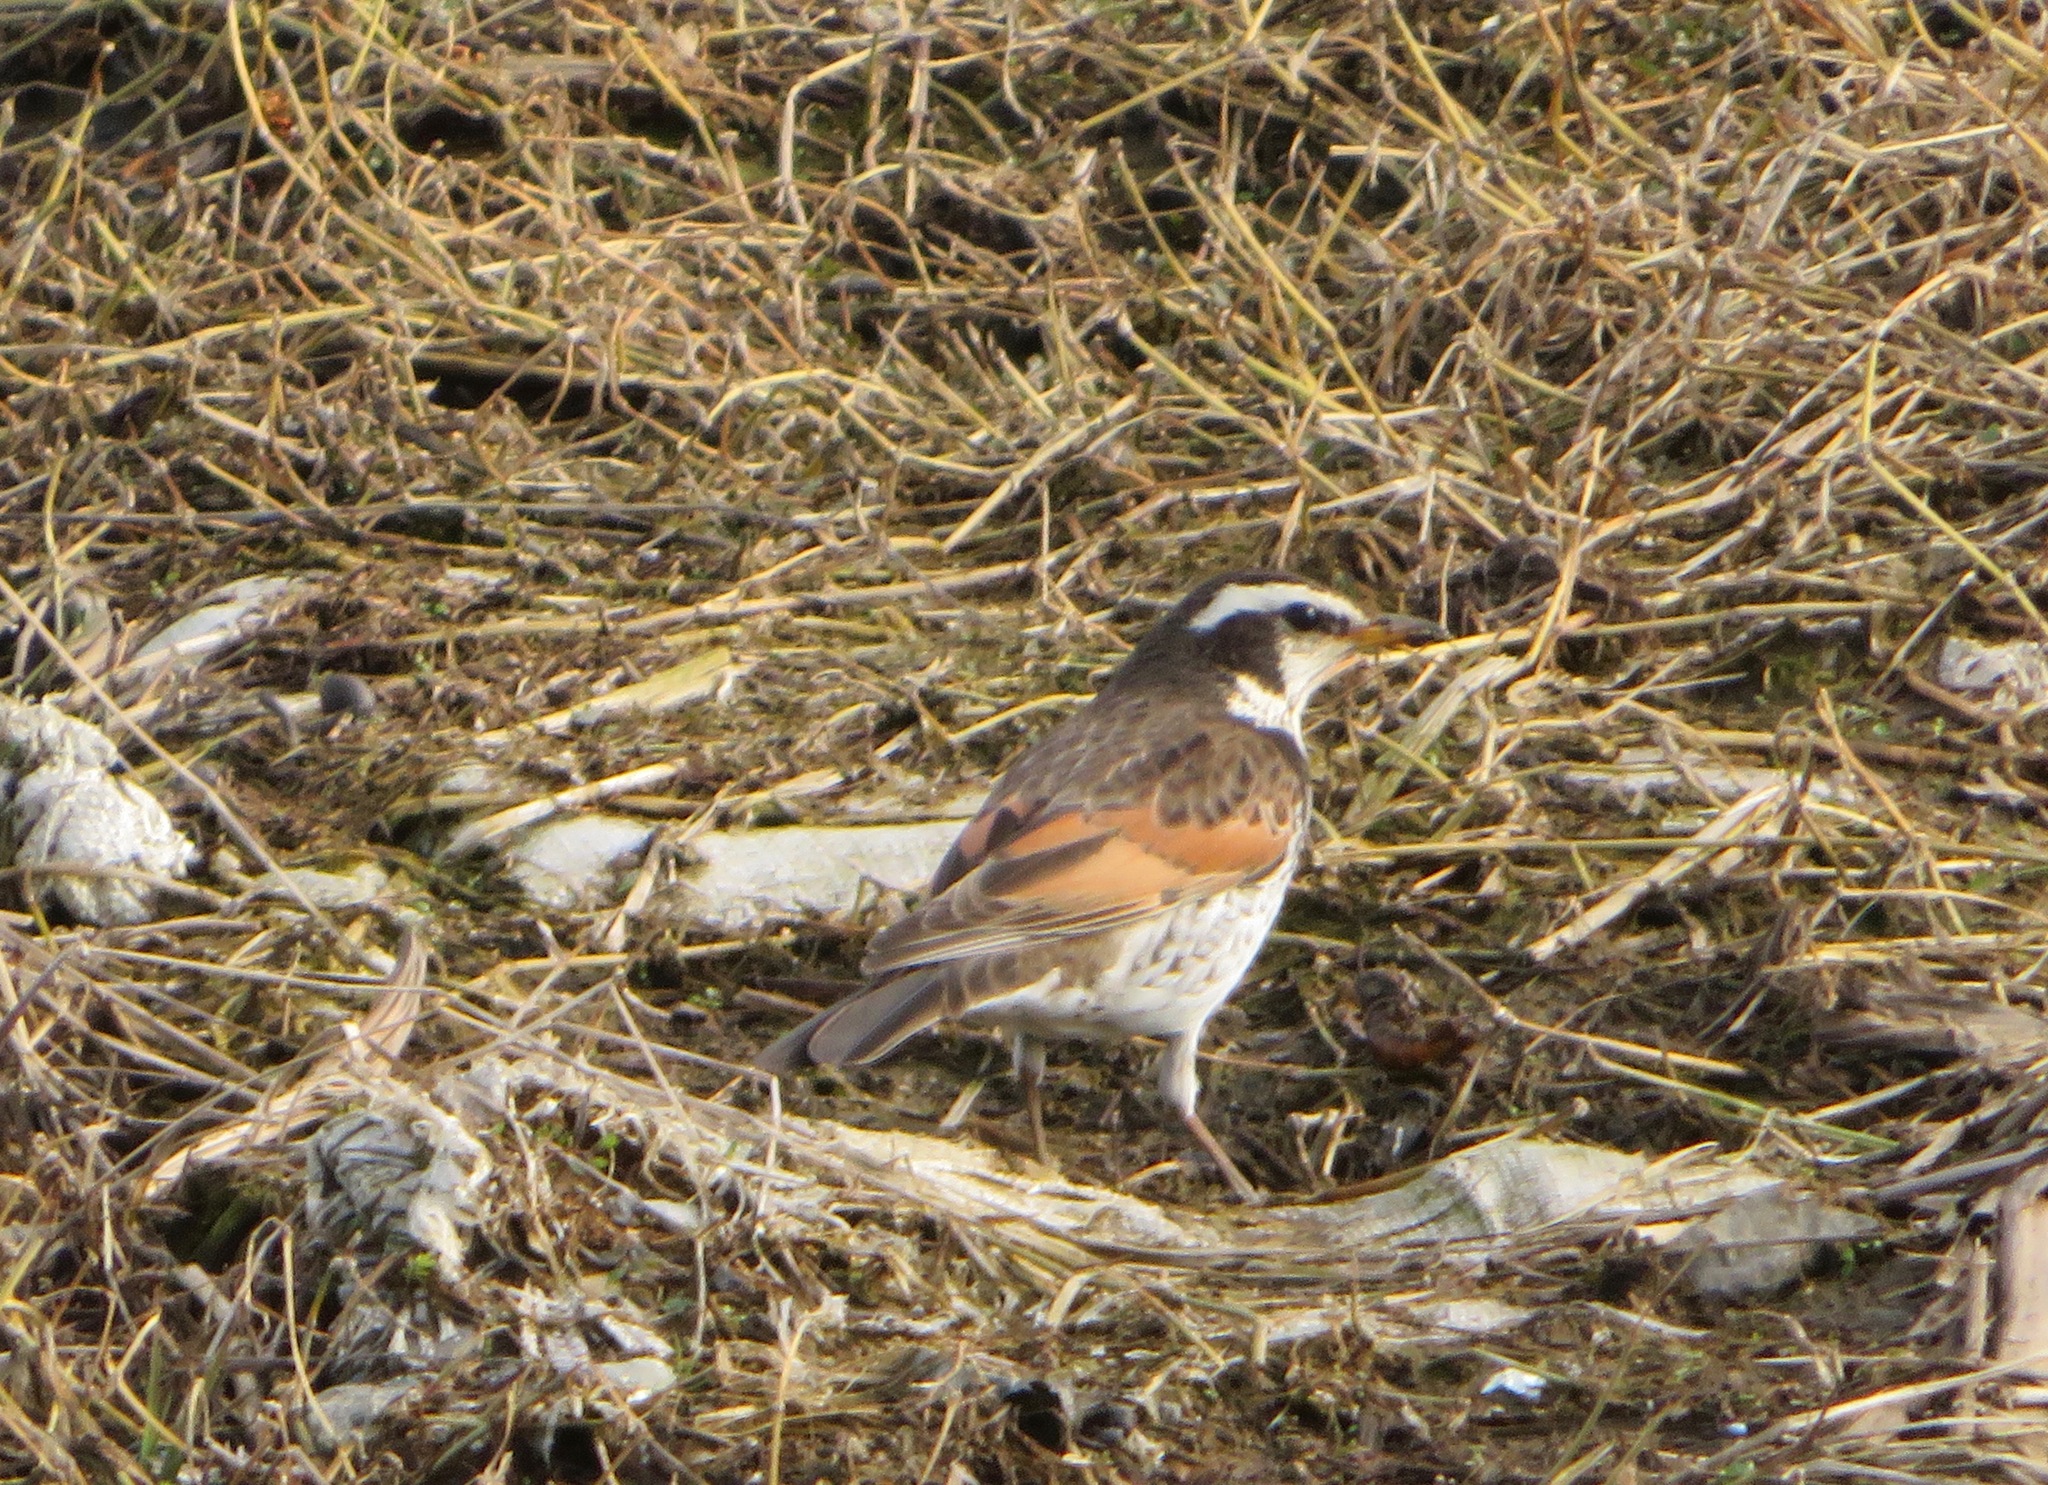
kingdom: Animalia
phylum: Chordata
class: Aves
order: Passeriformes
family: Turdidae
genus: Turdus
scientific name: Turdus eunomus
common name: Dusky thrush
